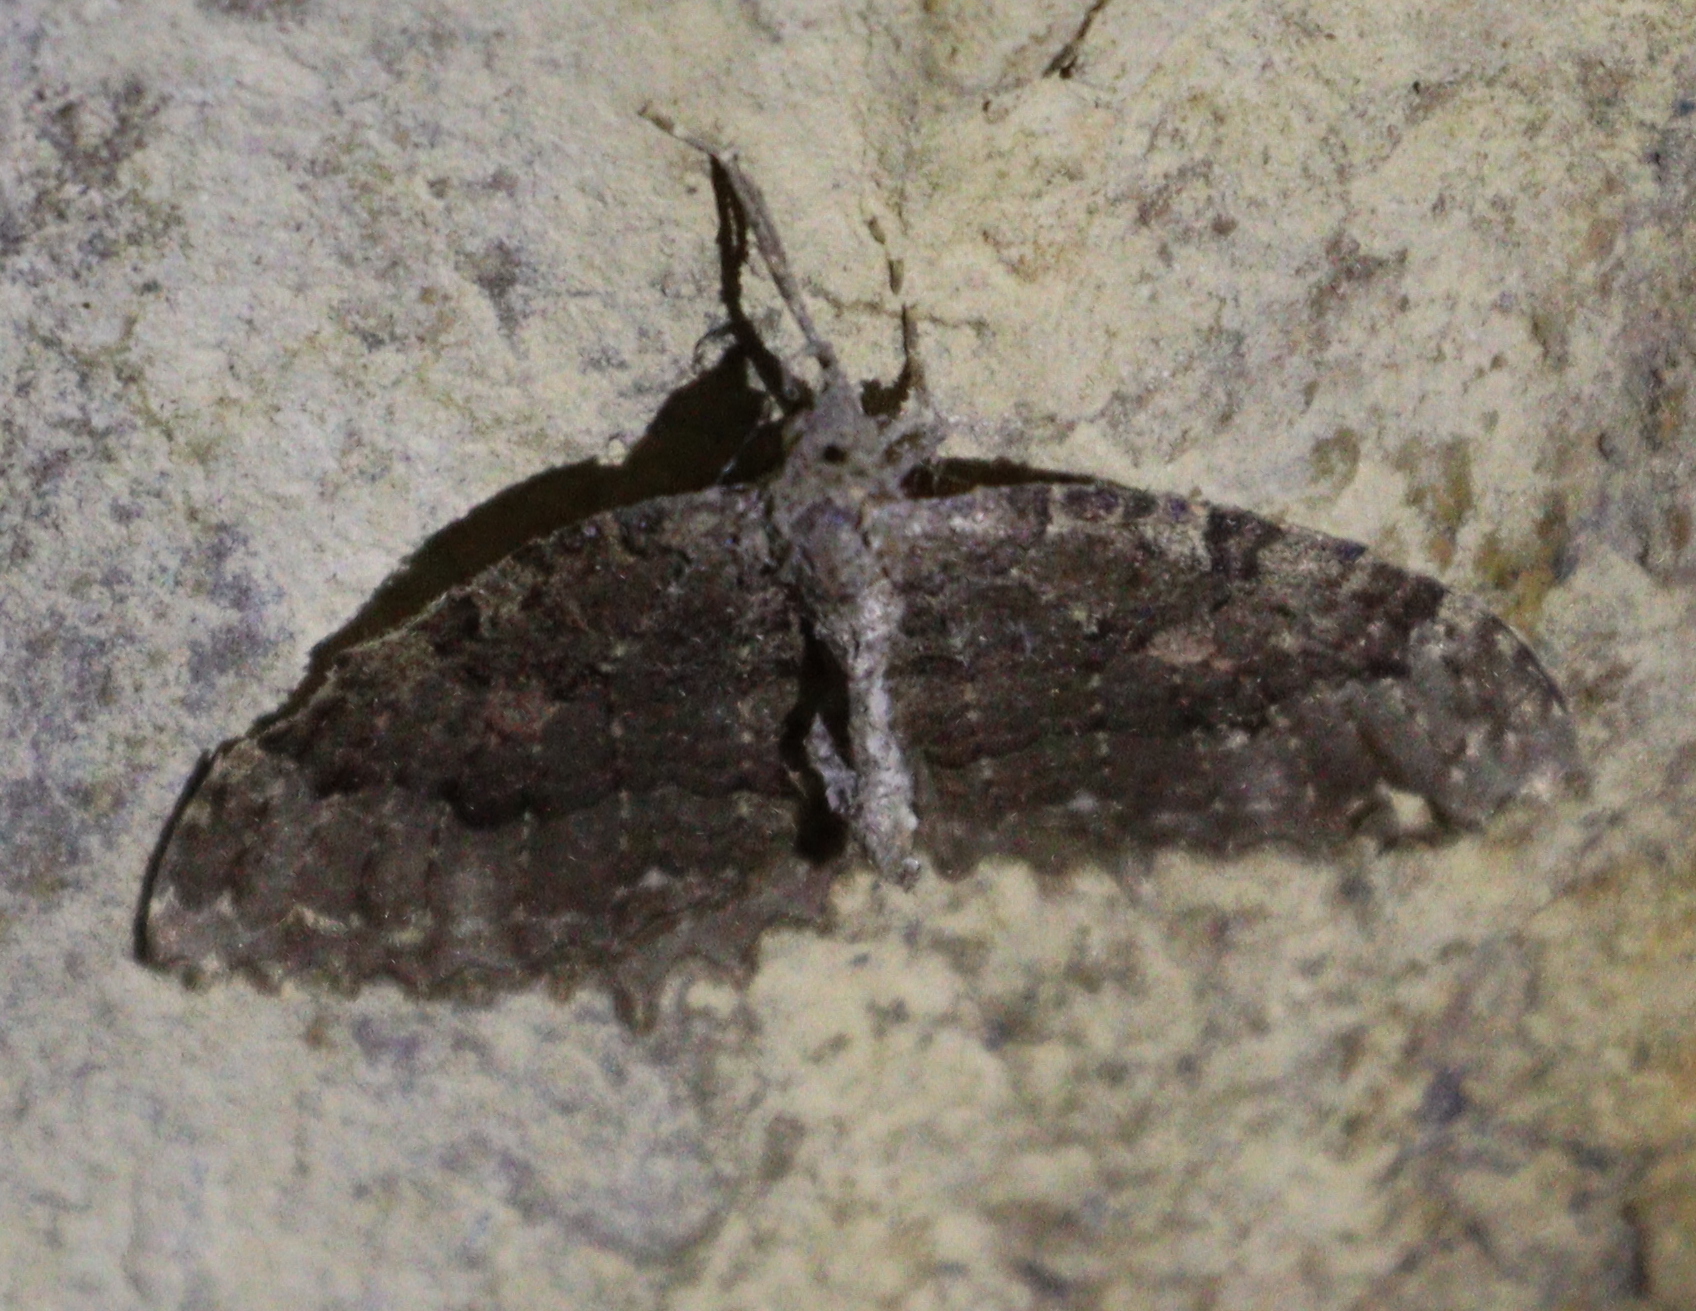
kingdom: Animalia
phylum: Arthropoda
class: Insecta
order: Lepidoptera
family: Geometridae
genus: Triphosa
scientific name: Triphosa dubitata
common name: Tissue
